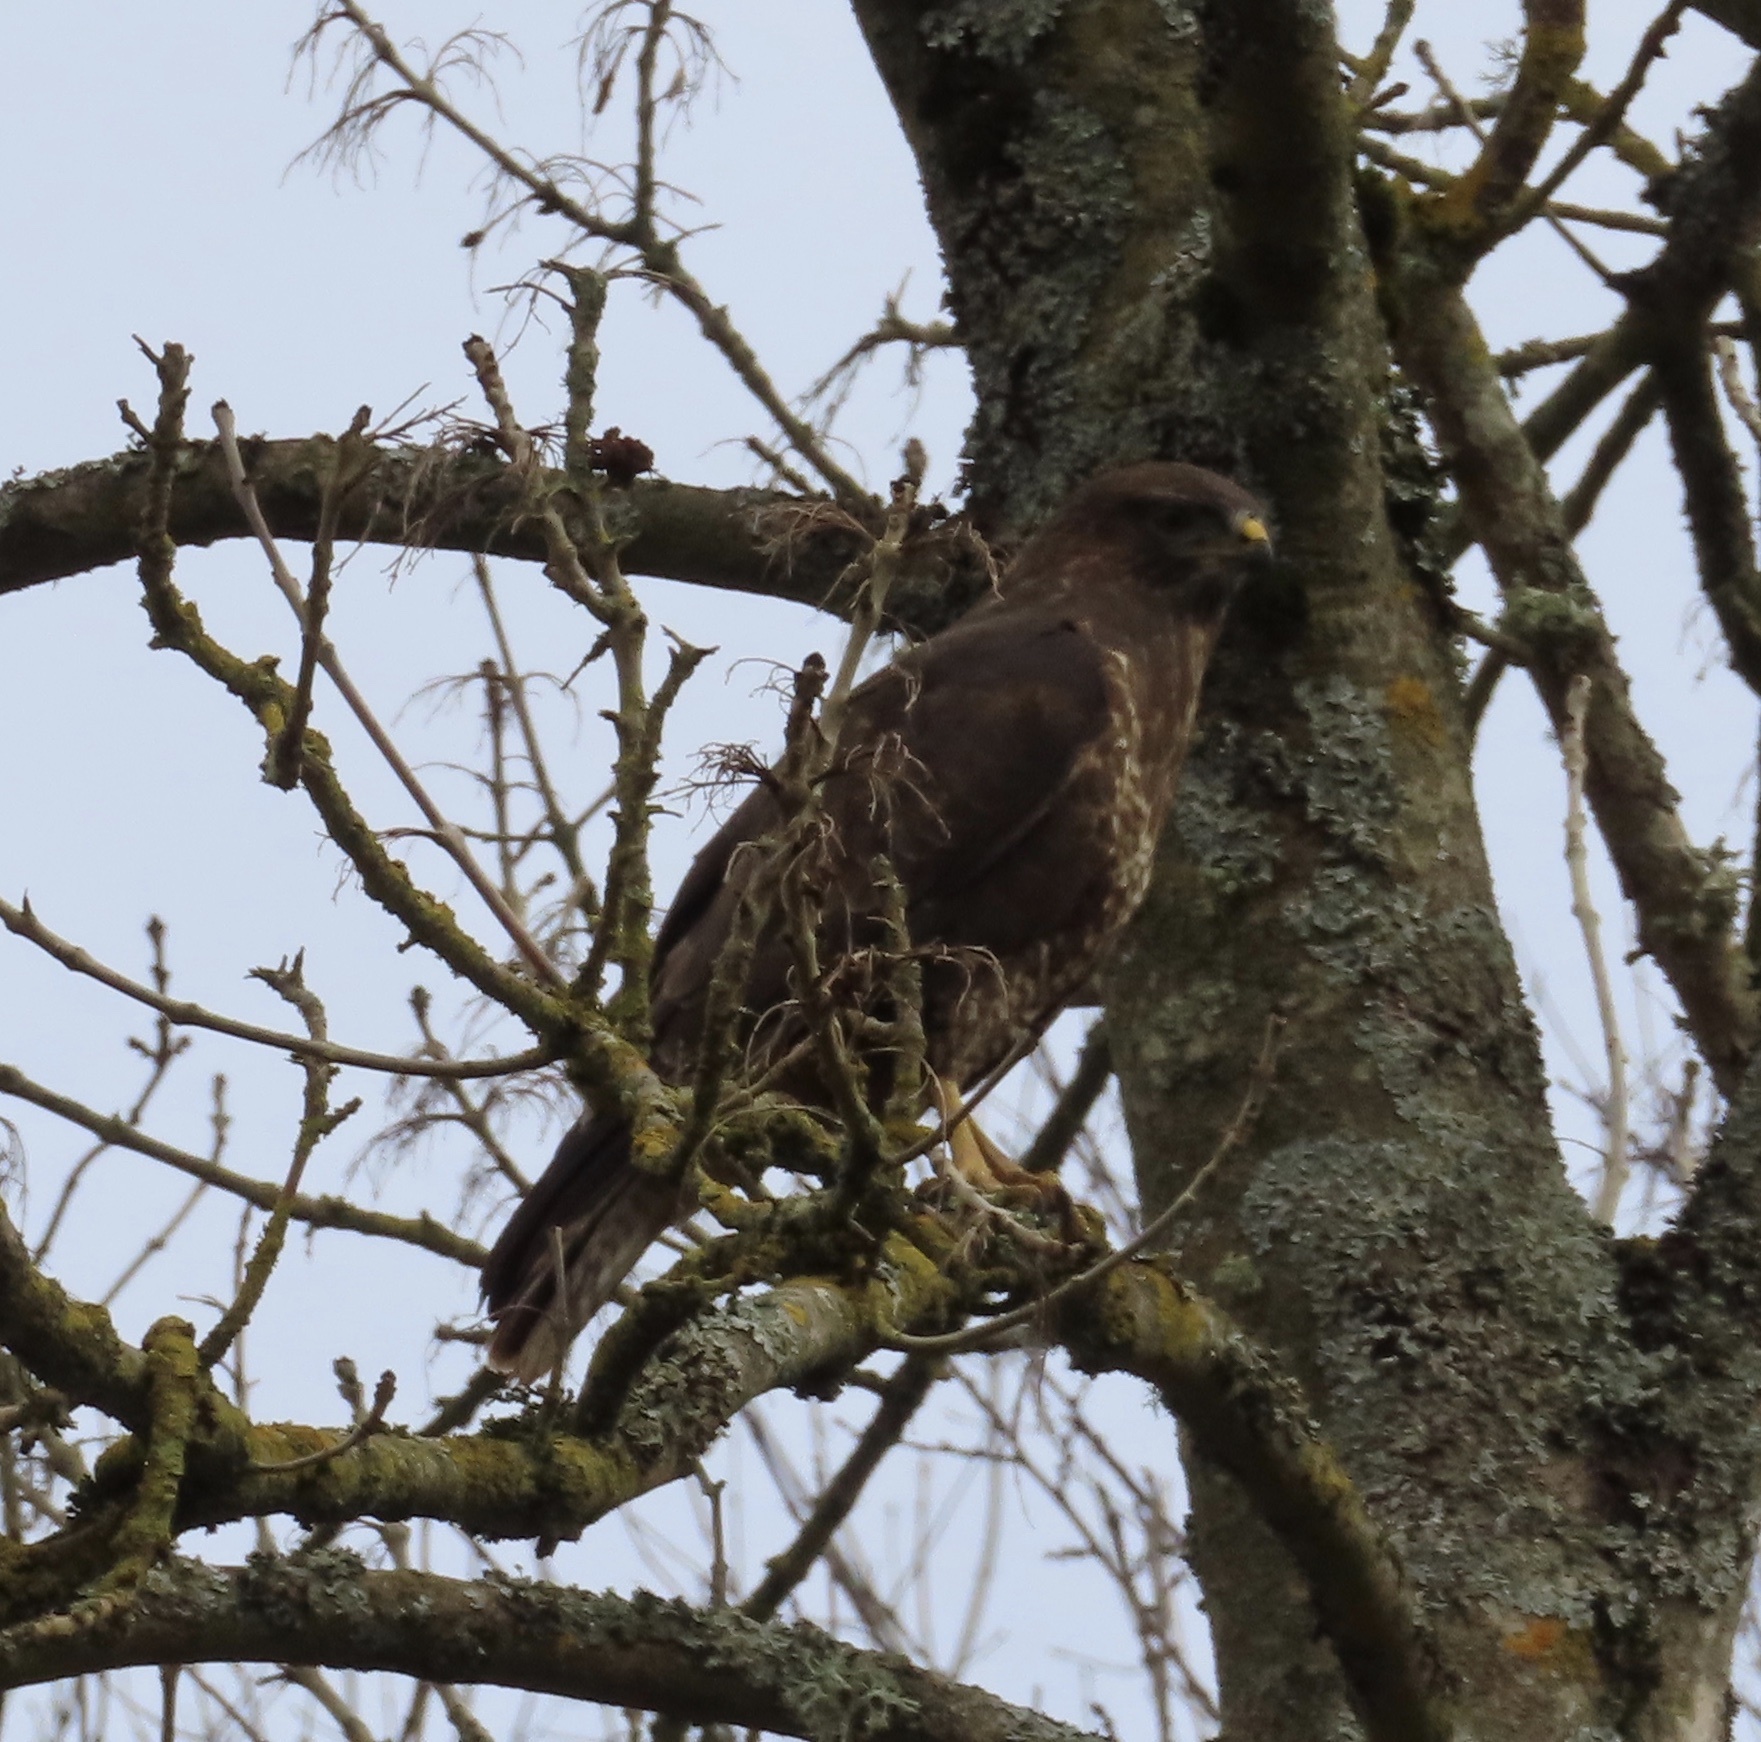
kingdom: Animalia
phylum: Chordata
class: Aves
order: Accipitriformes
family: Accipitridae
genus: Buteo
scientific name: Buteo buteo
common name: Common buzzard
